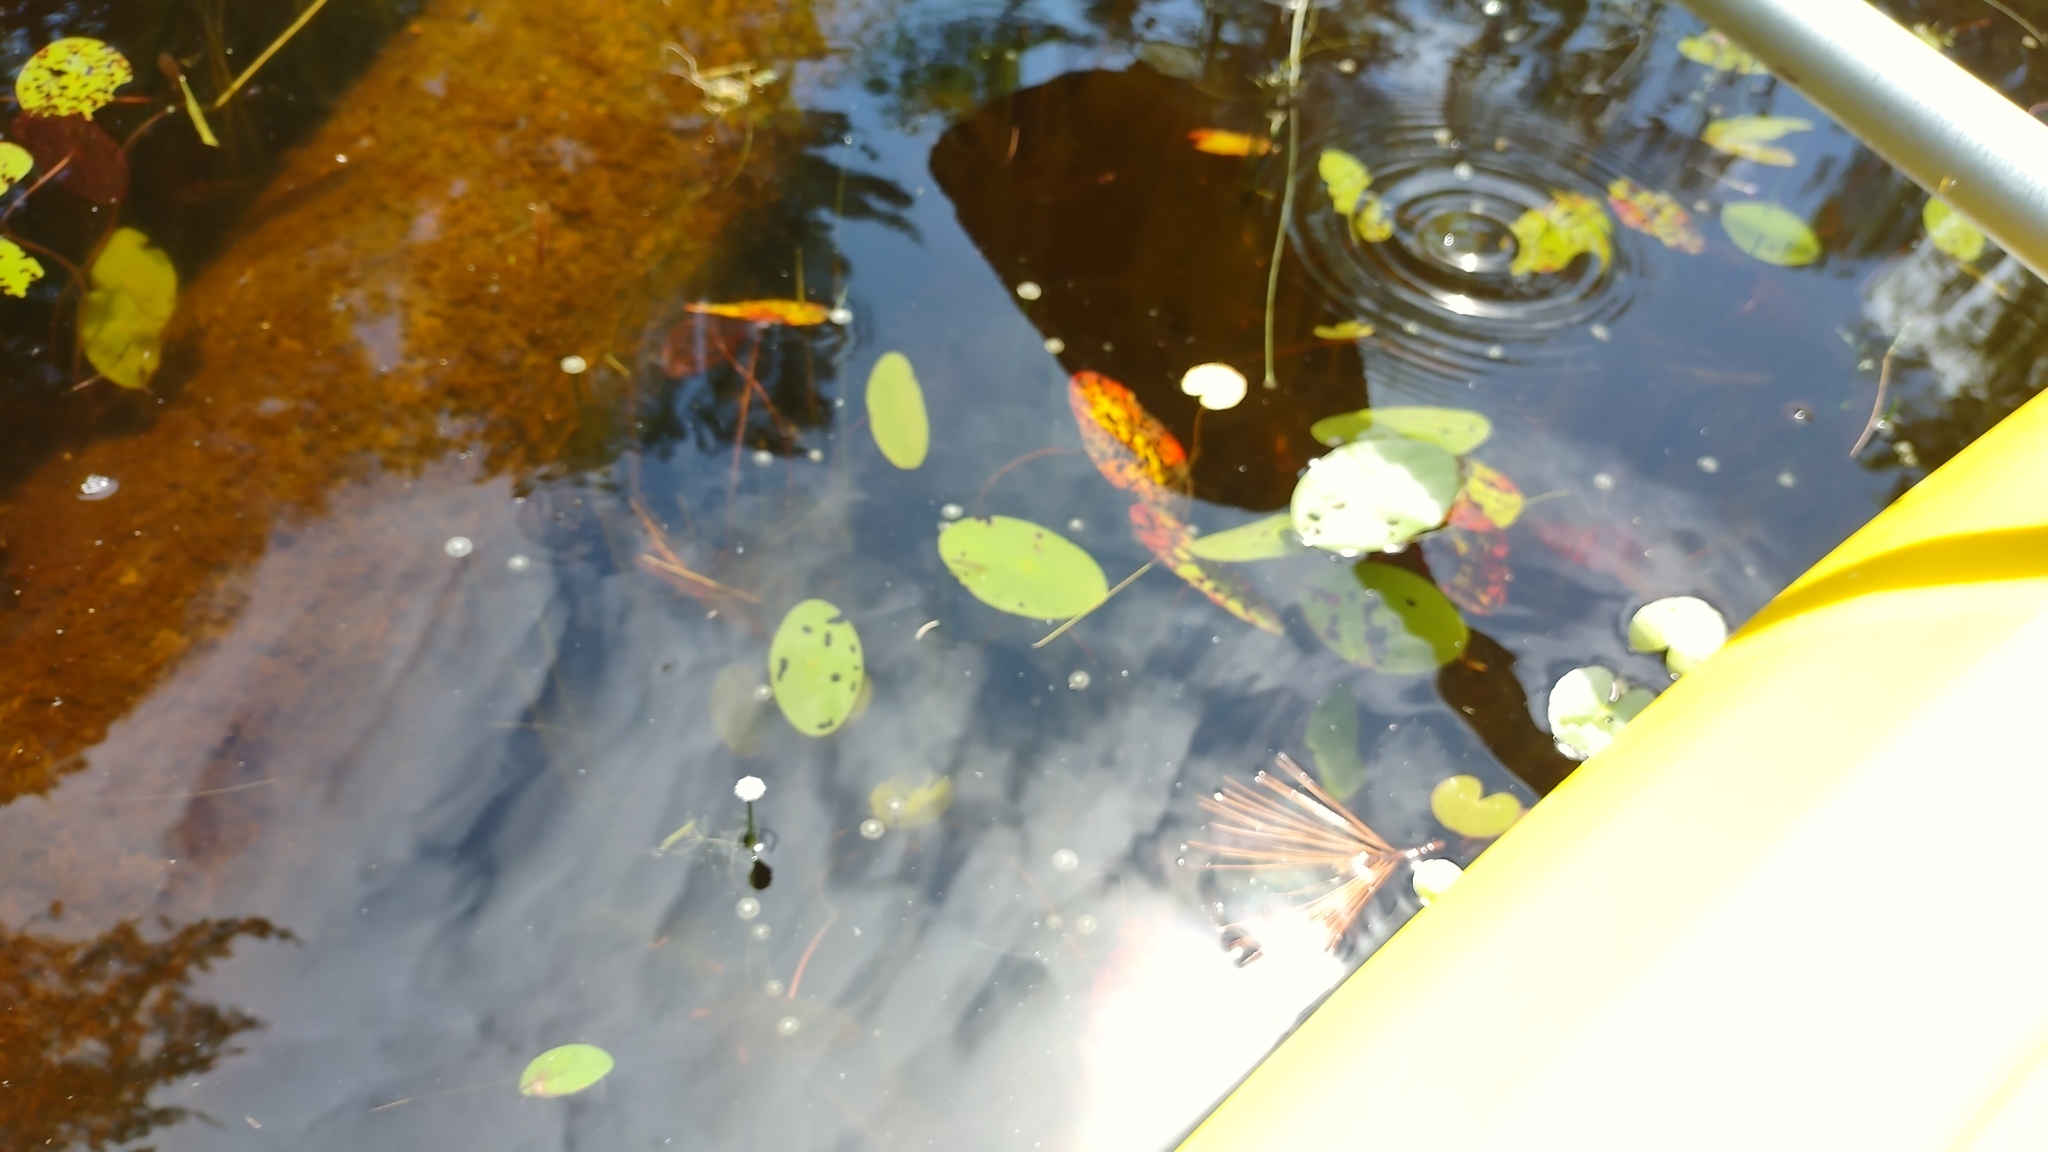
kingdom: Plantae
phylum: Tracheophyta
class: Liliopsida
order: Poales
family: Eriocaulaceae
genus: Eriocaulon
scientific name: Eriocaulon aquaticum
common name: Pipewort
